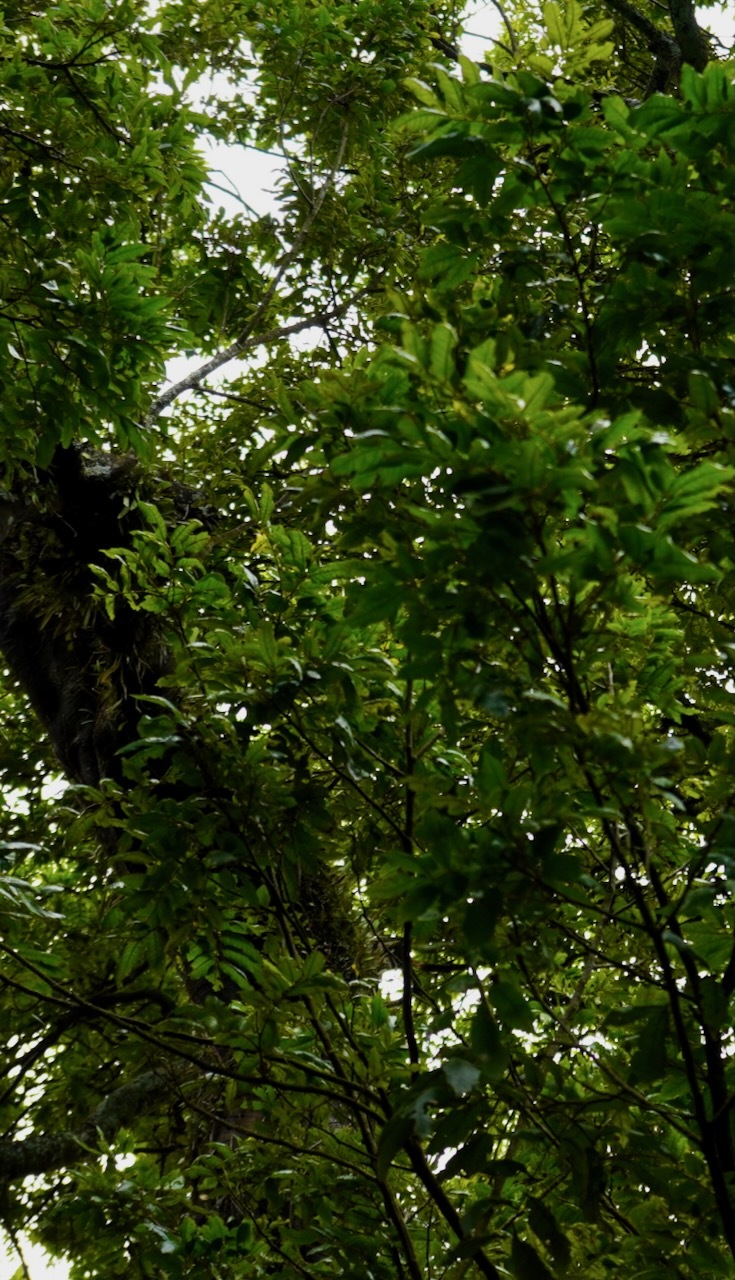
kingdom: Plantae
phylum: Tracheophyta
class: Magnoliopsida
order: Sapindales
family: Sapindaceae
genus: Alectryon
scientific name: Alectryon excelsus
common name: Three kings titoki
